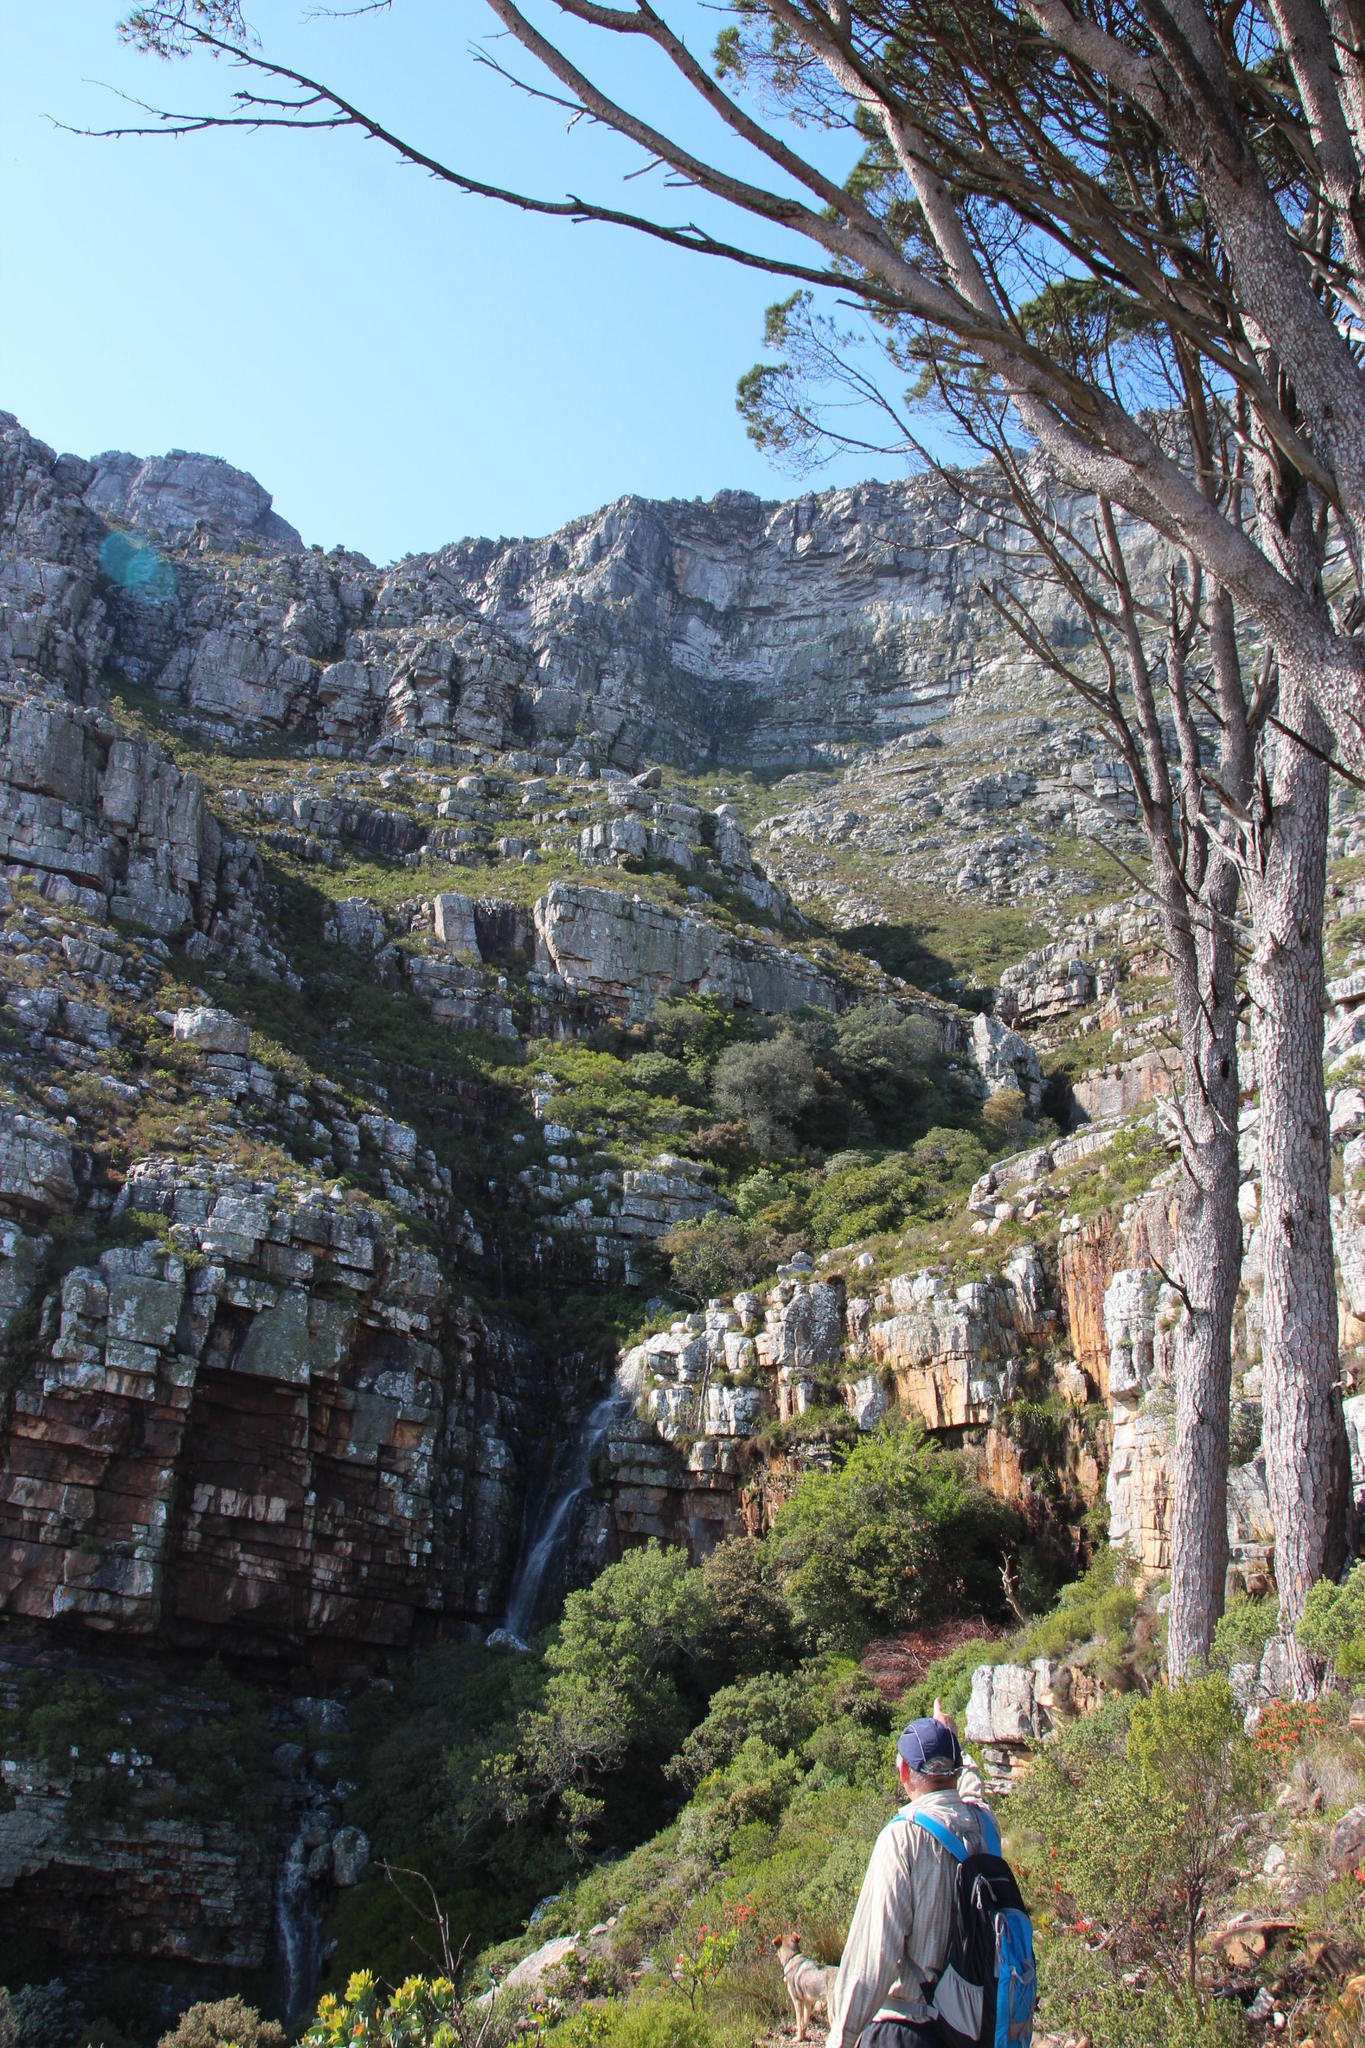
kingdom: Plantae
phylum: Tracheophyta
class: Pinopsida
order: Pinales
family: Pinaceae
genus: Pinus
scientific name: Pinus pinea
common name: Italian stone pine
